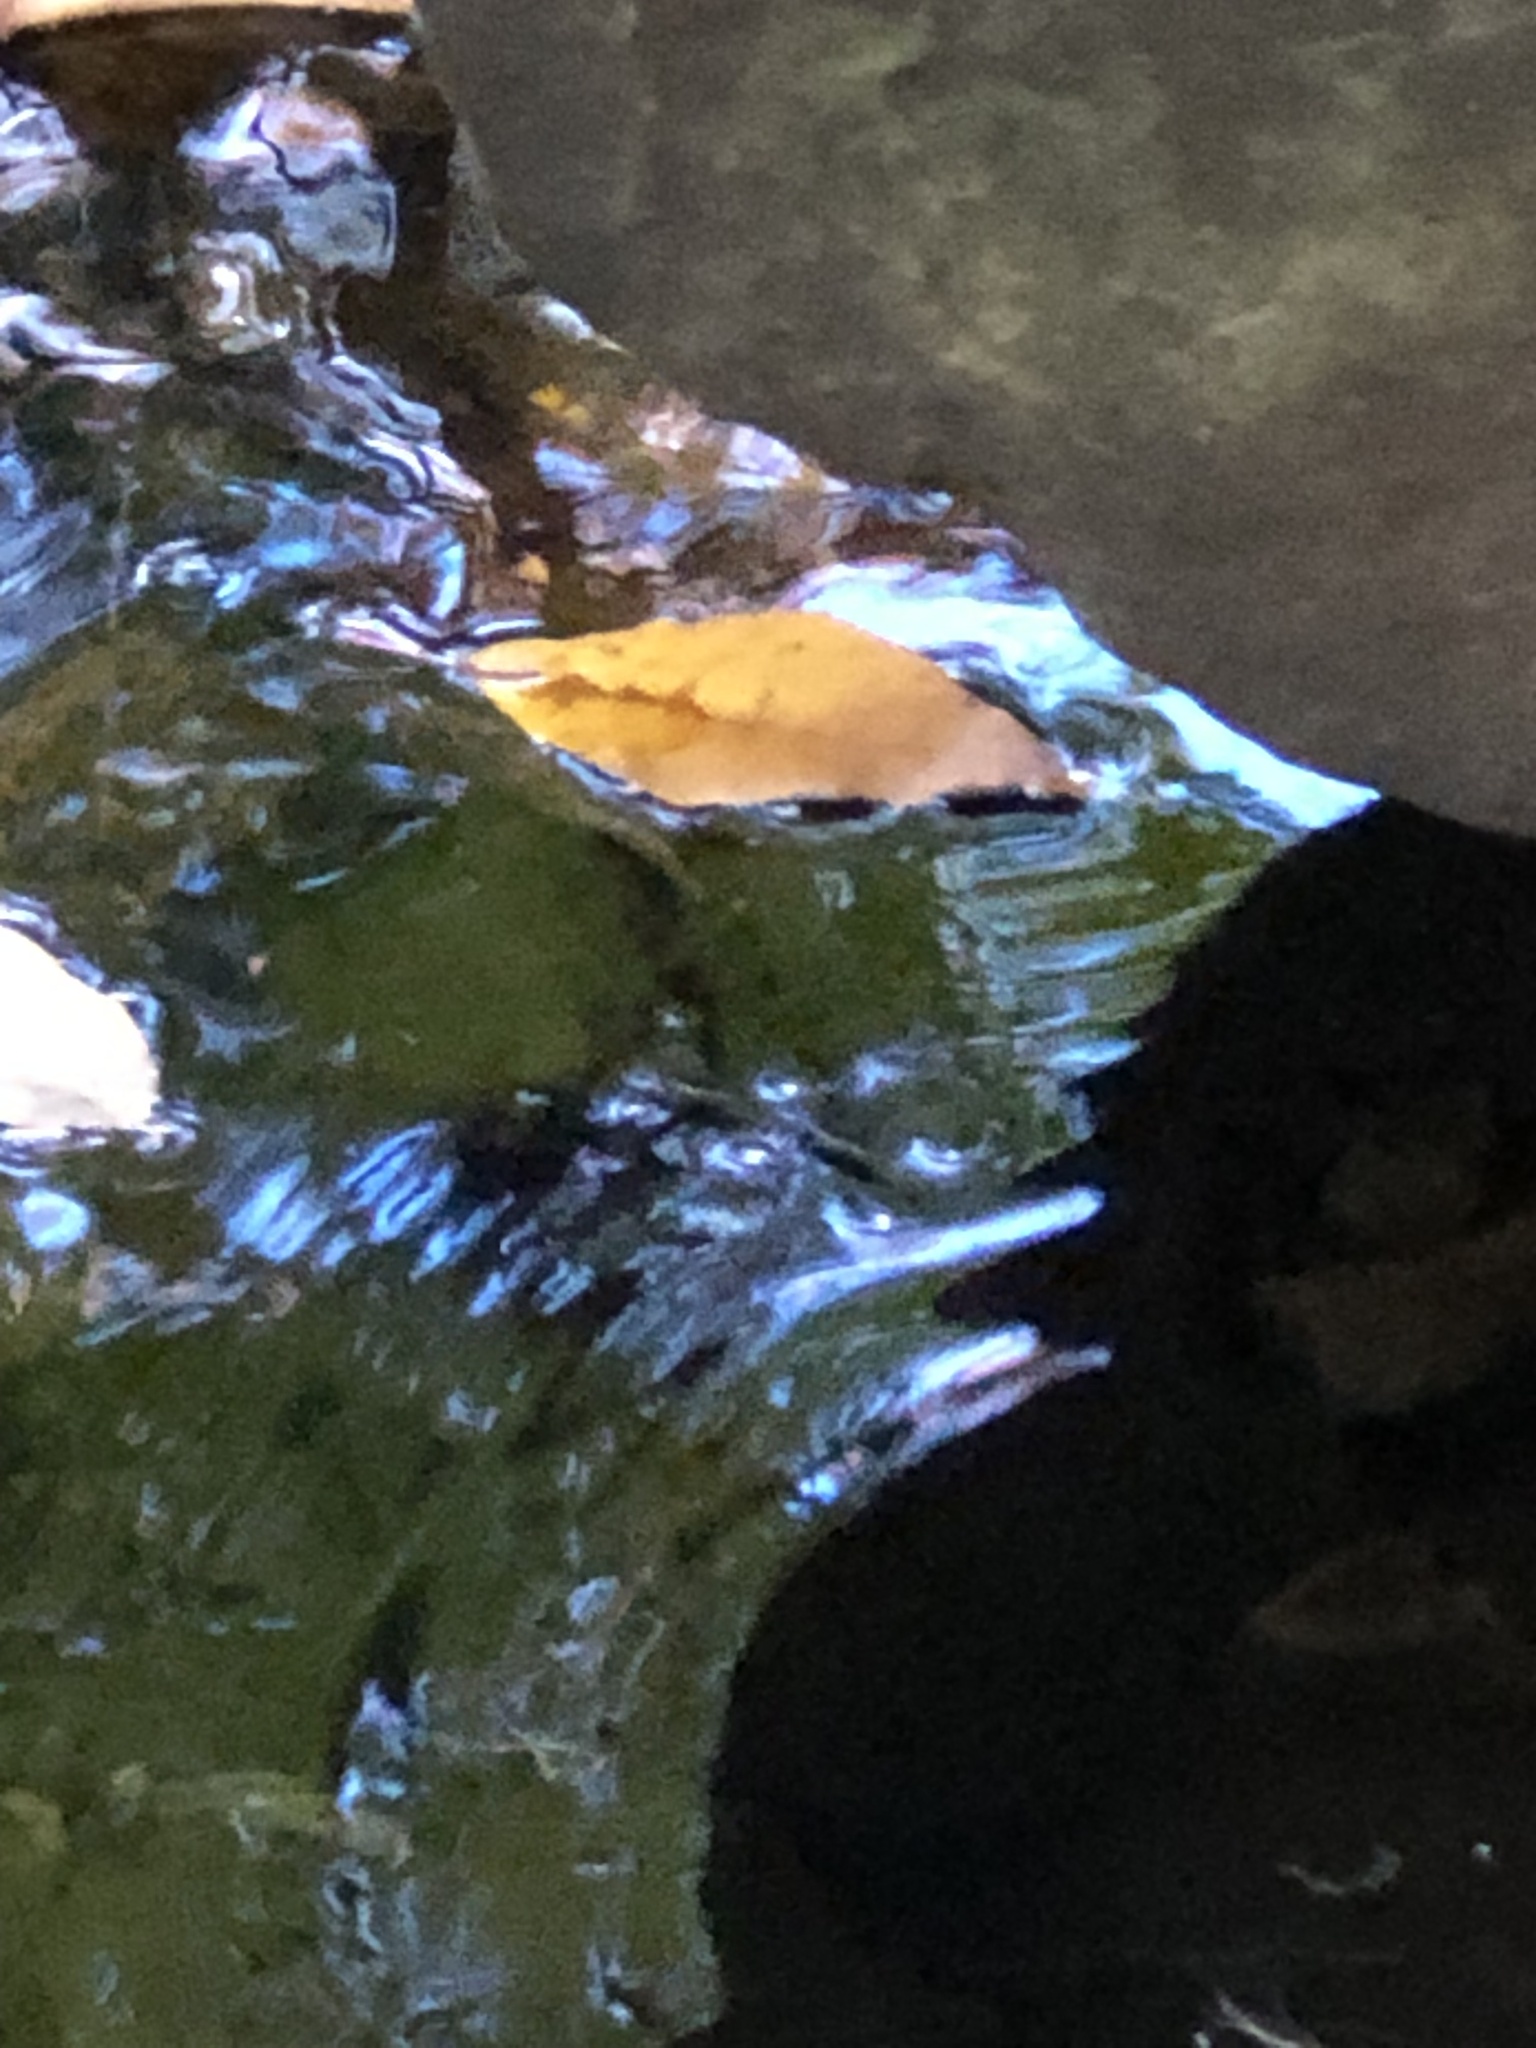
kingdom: Animalia
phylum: Arthropoda
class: Insecta
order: Hemiptera
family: Gerridae
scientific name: Gerridae
